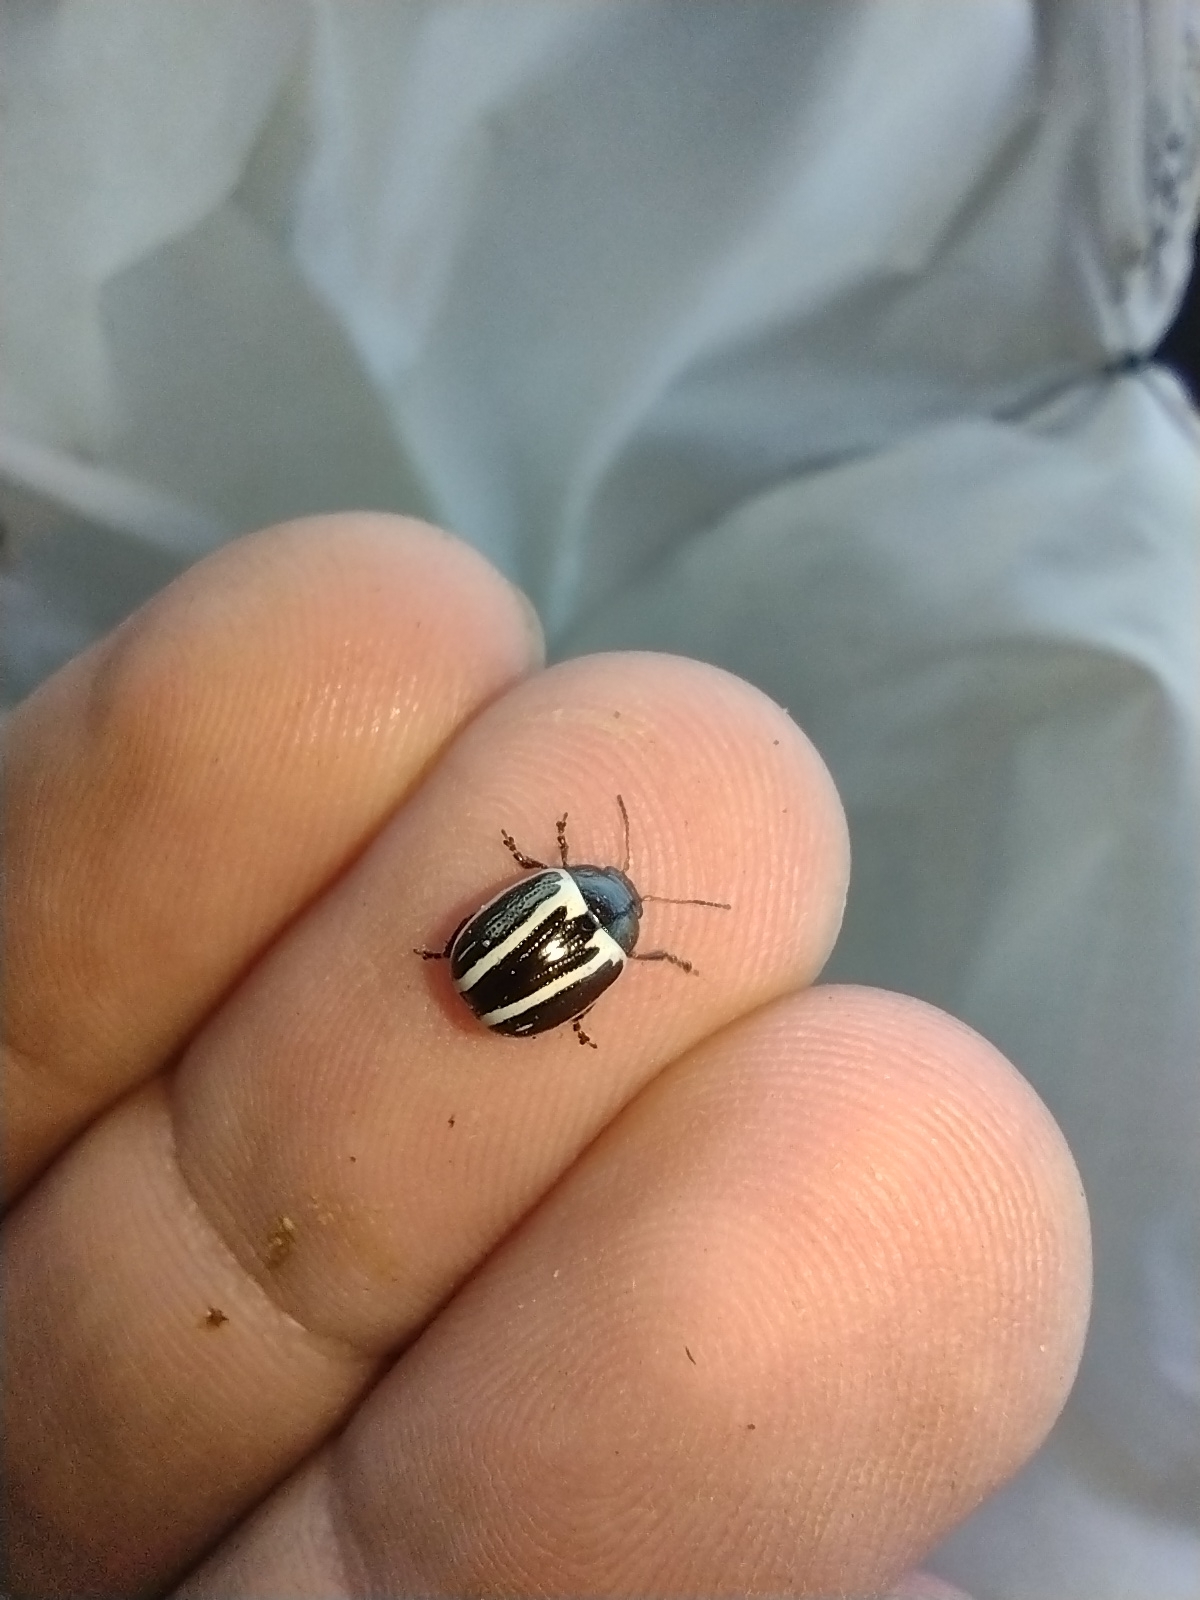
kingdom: Animalia
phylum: Arthropoda
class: Insecta
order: Coleoptera
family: Chrysomelidae
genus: Calligrapha
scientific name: Calligrapha
